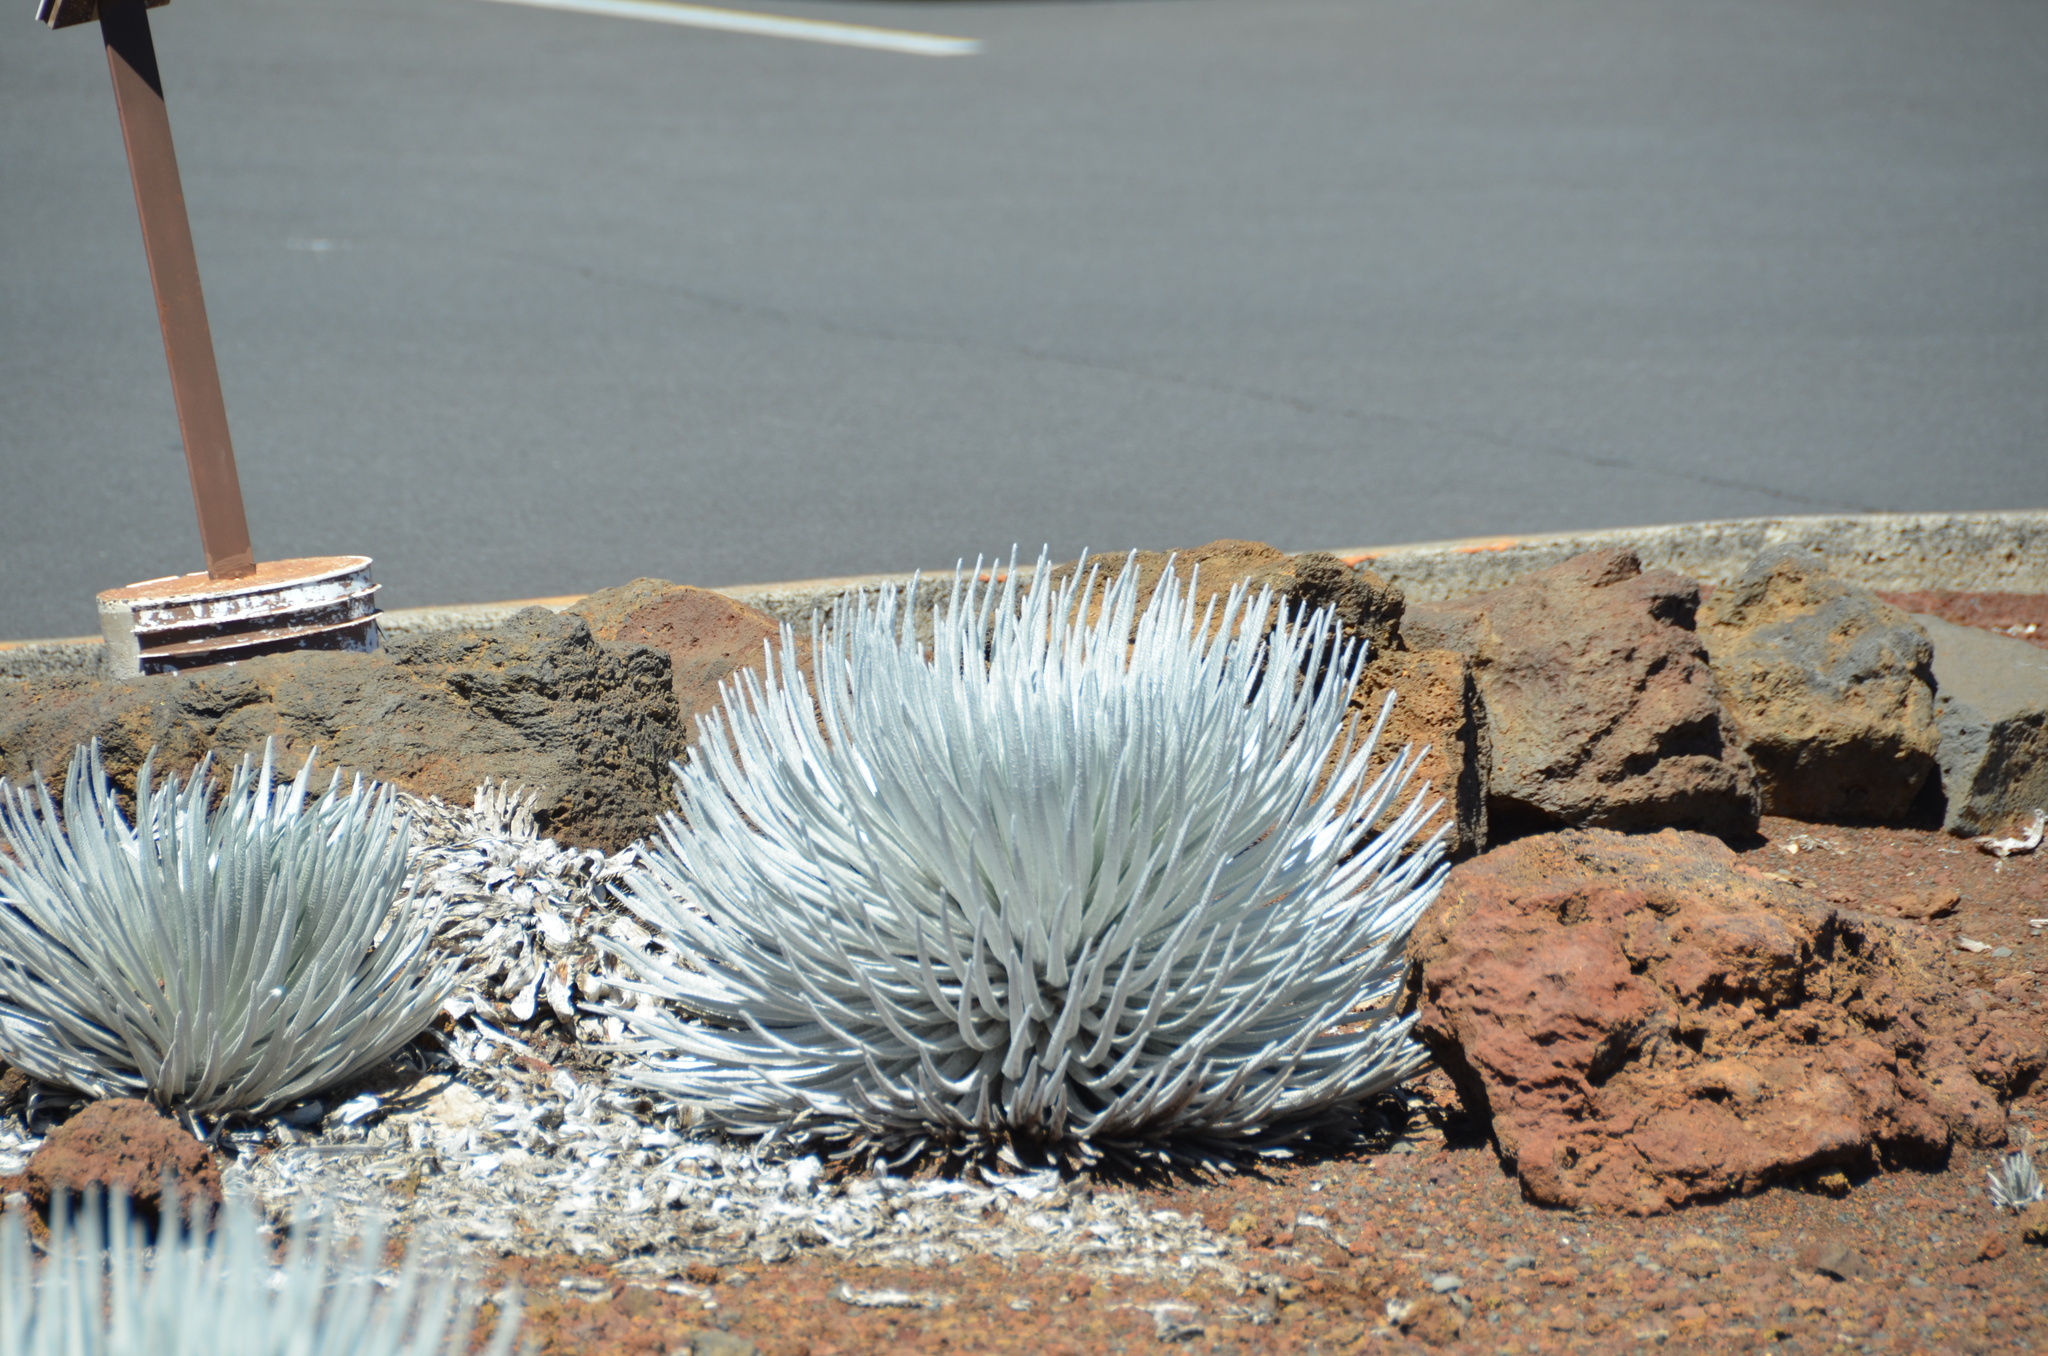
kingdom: Plantae
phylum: Tracheophyta
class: Magnoliopsida
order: Asterales
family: Asteraceae
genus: Argyroxiphium
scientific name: Argyroxiphium sandwicense
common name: Silversword
